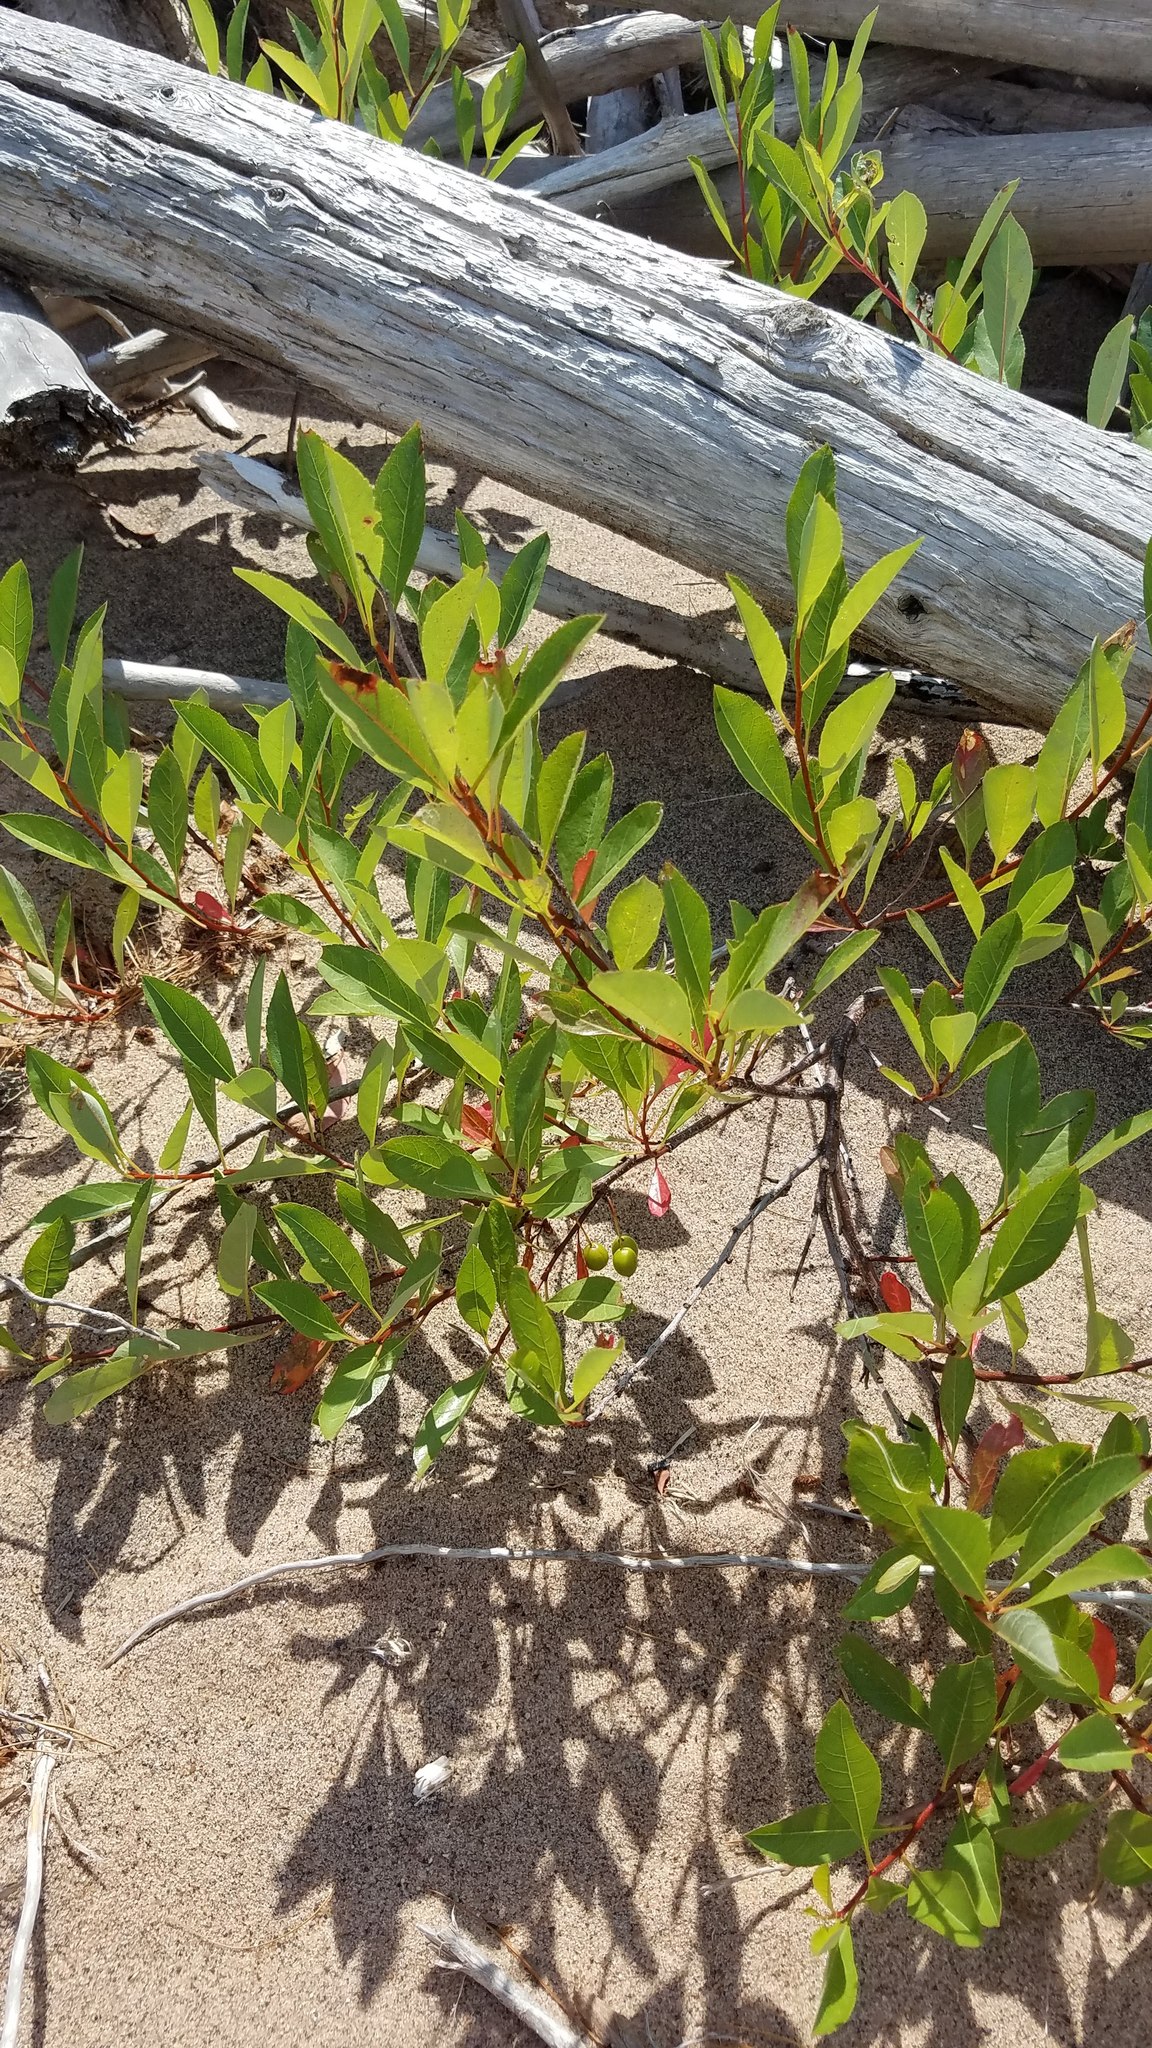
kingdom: Plantae
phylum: Tracheophyta
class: Magnoliopsida
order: Rosales
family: Rosaceae
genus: Prunus
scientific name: Prunus pumila
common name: Dwarf cherry
